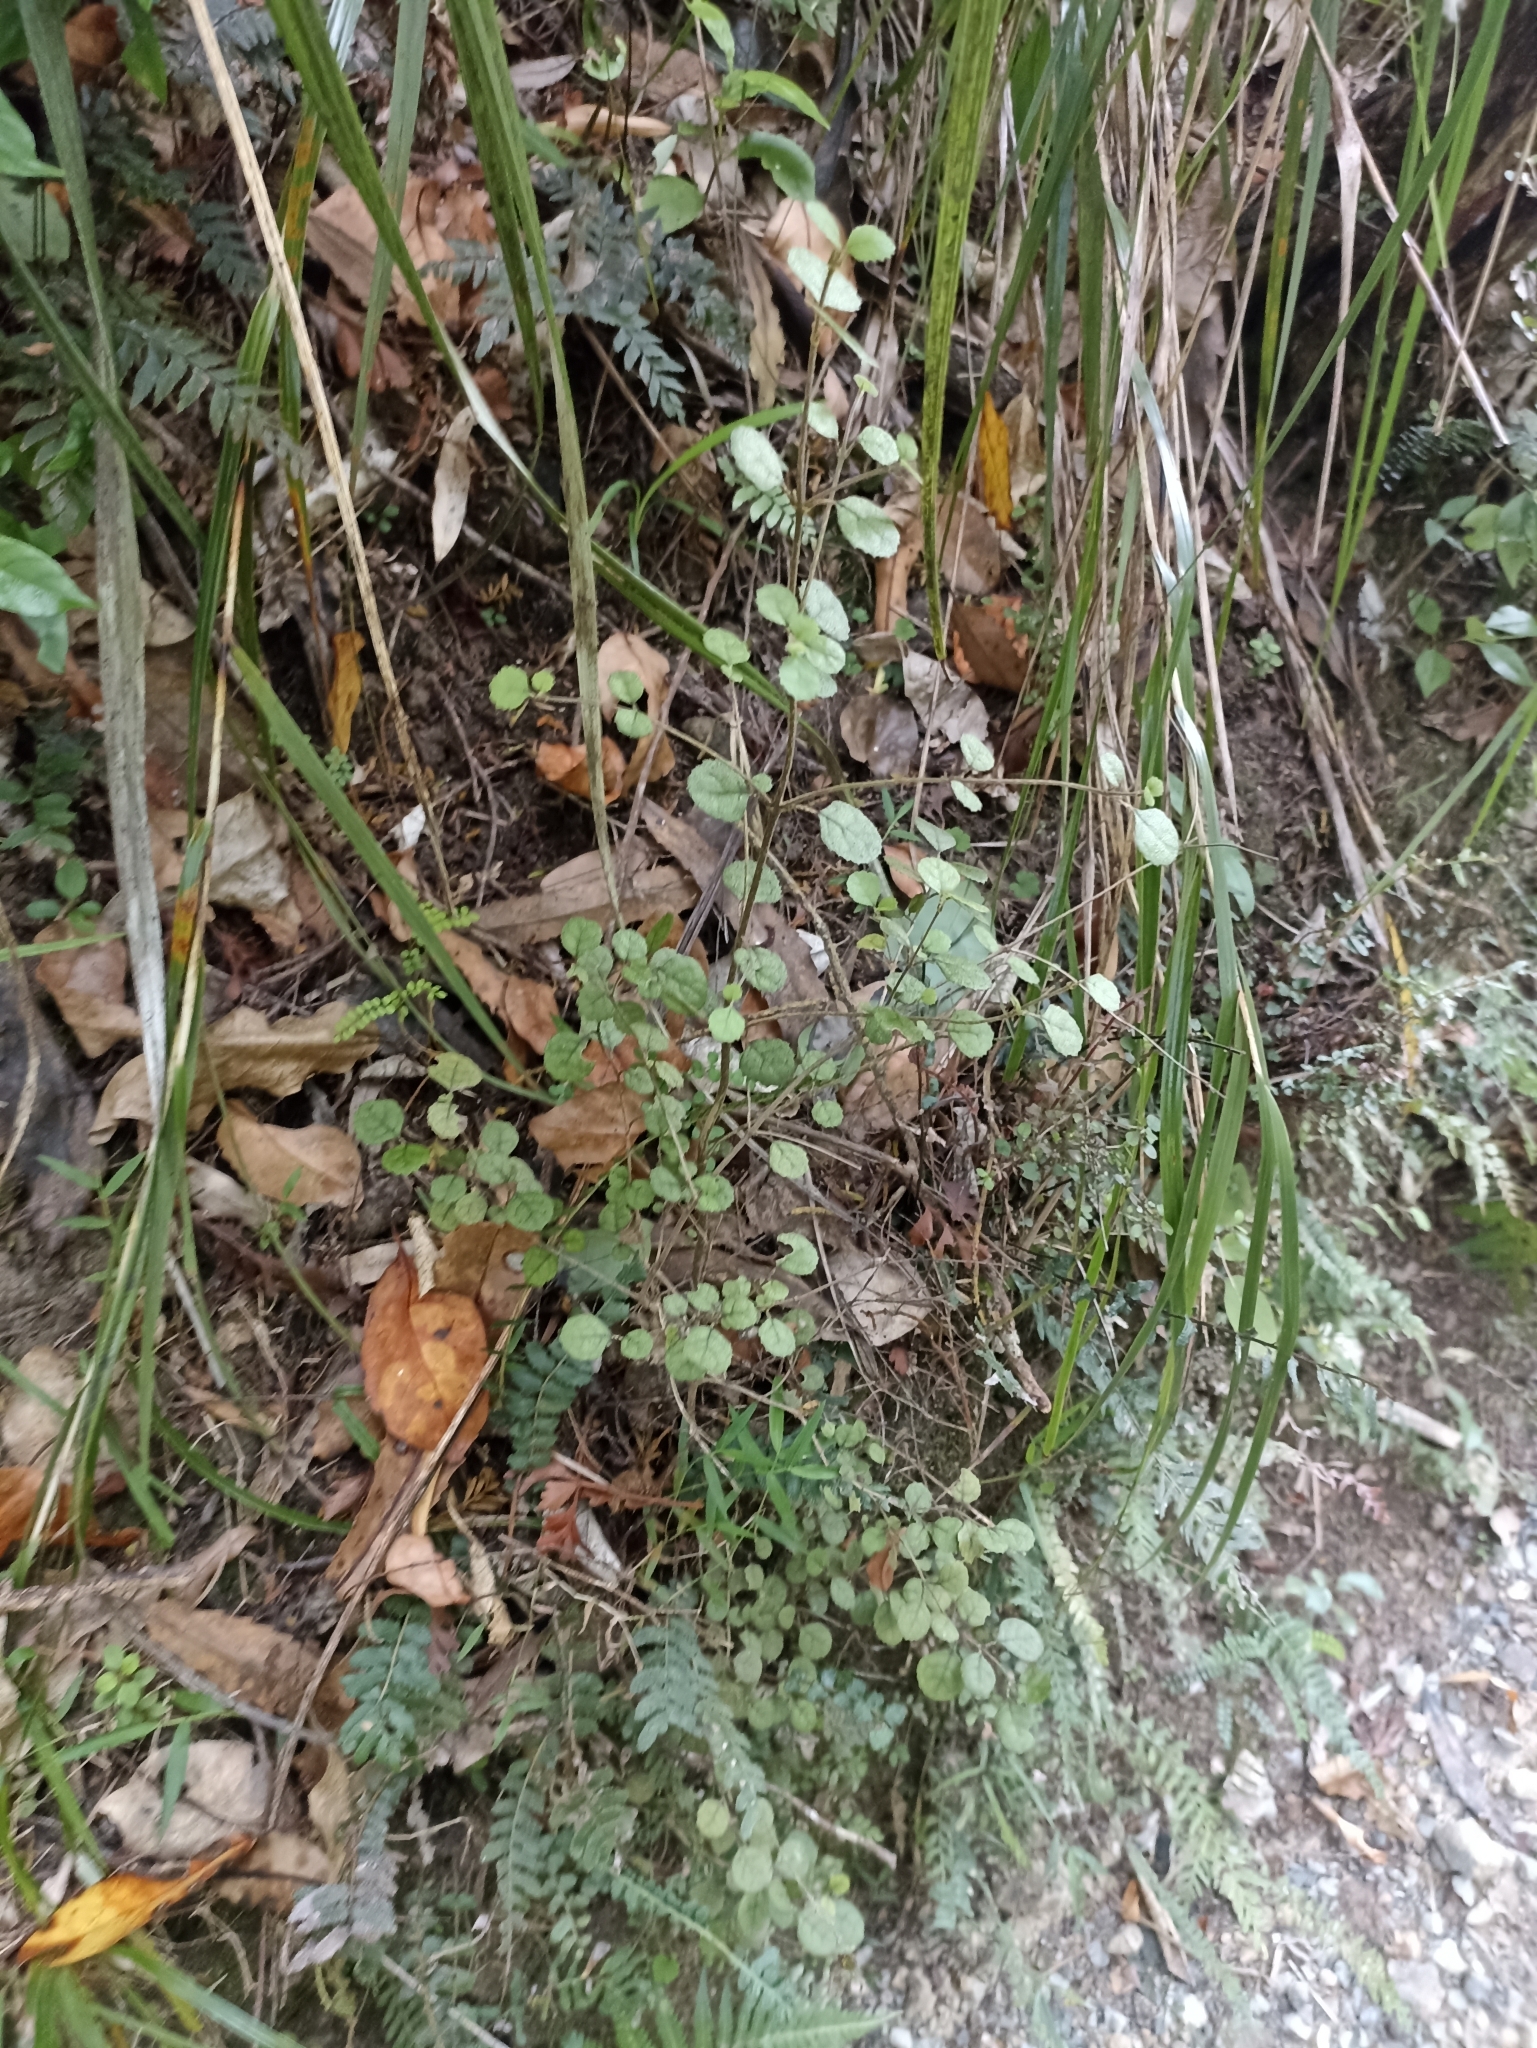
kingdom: Plantae
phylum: Tracheophyta
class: Magnoliopsida
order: Lamiales
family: Gesneriaceae
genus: Rhabdothamnus
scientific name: Rhabdothamnus solandri
